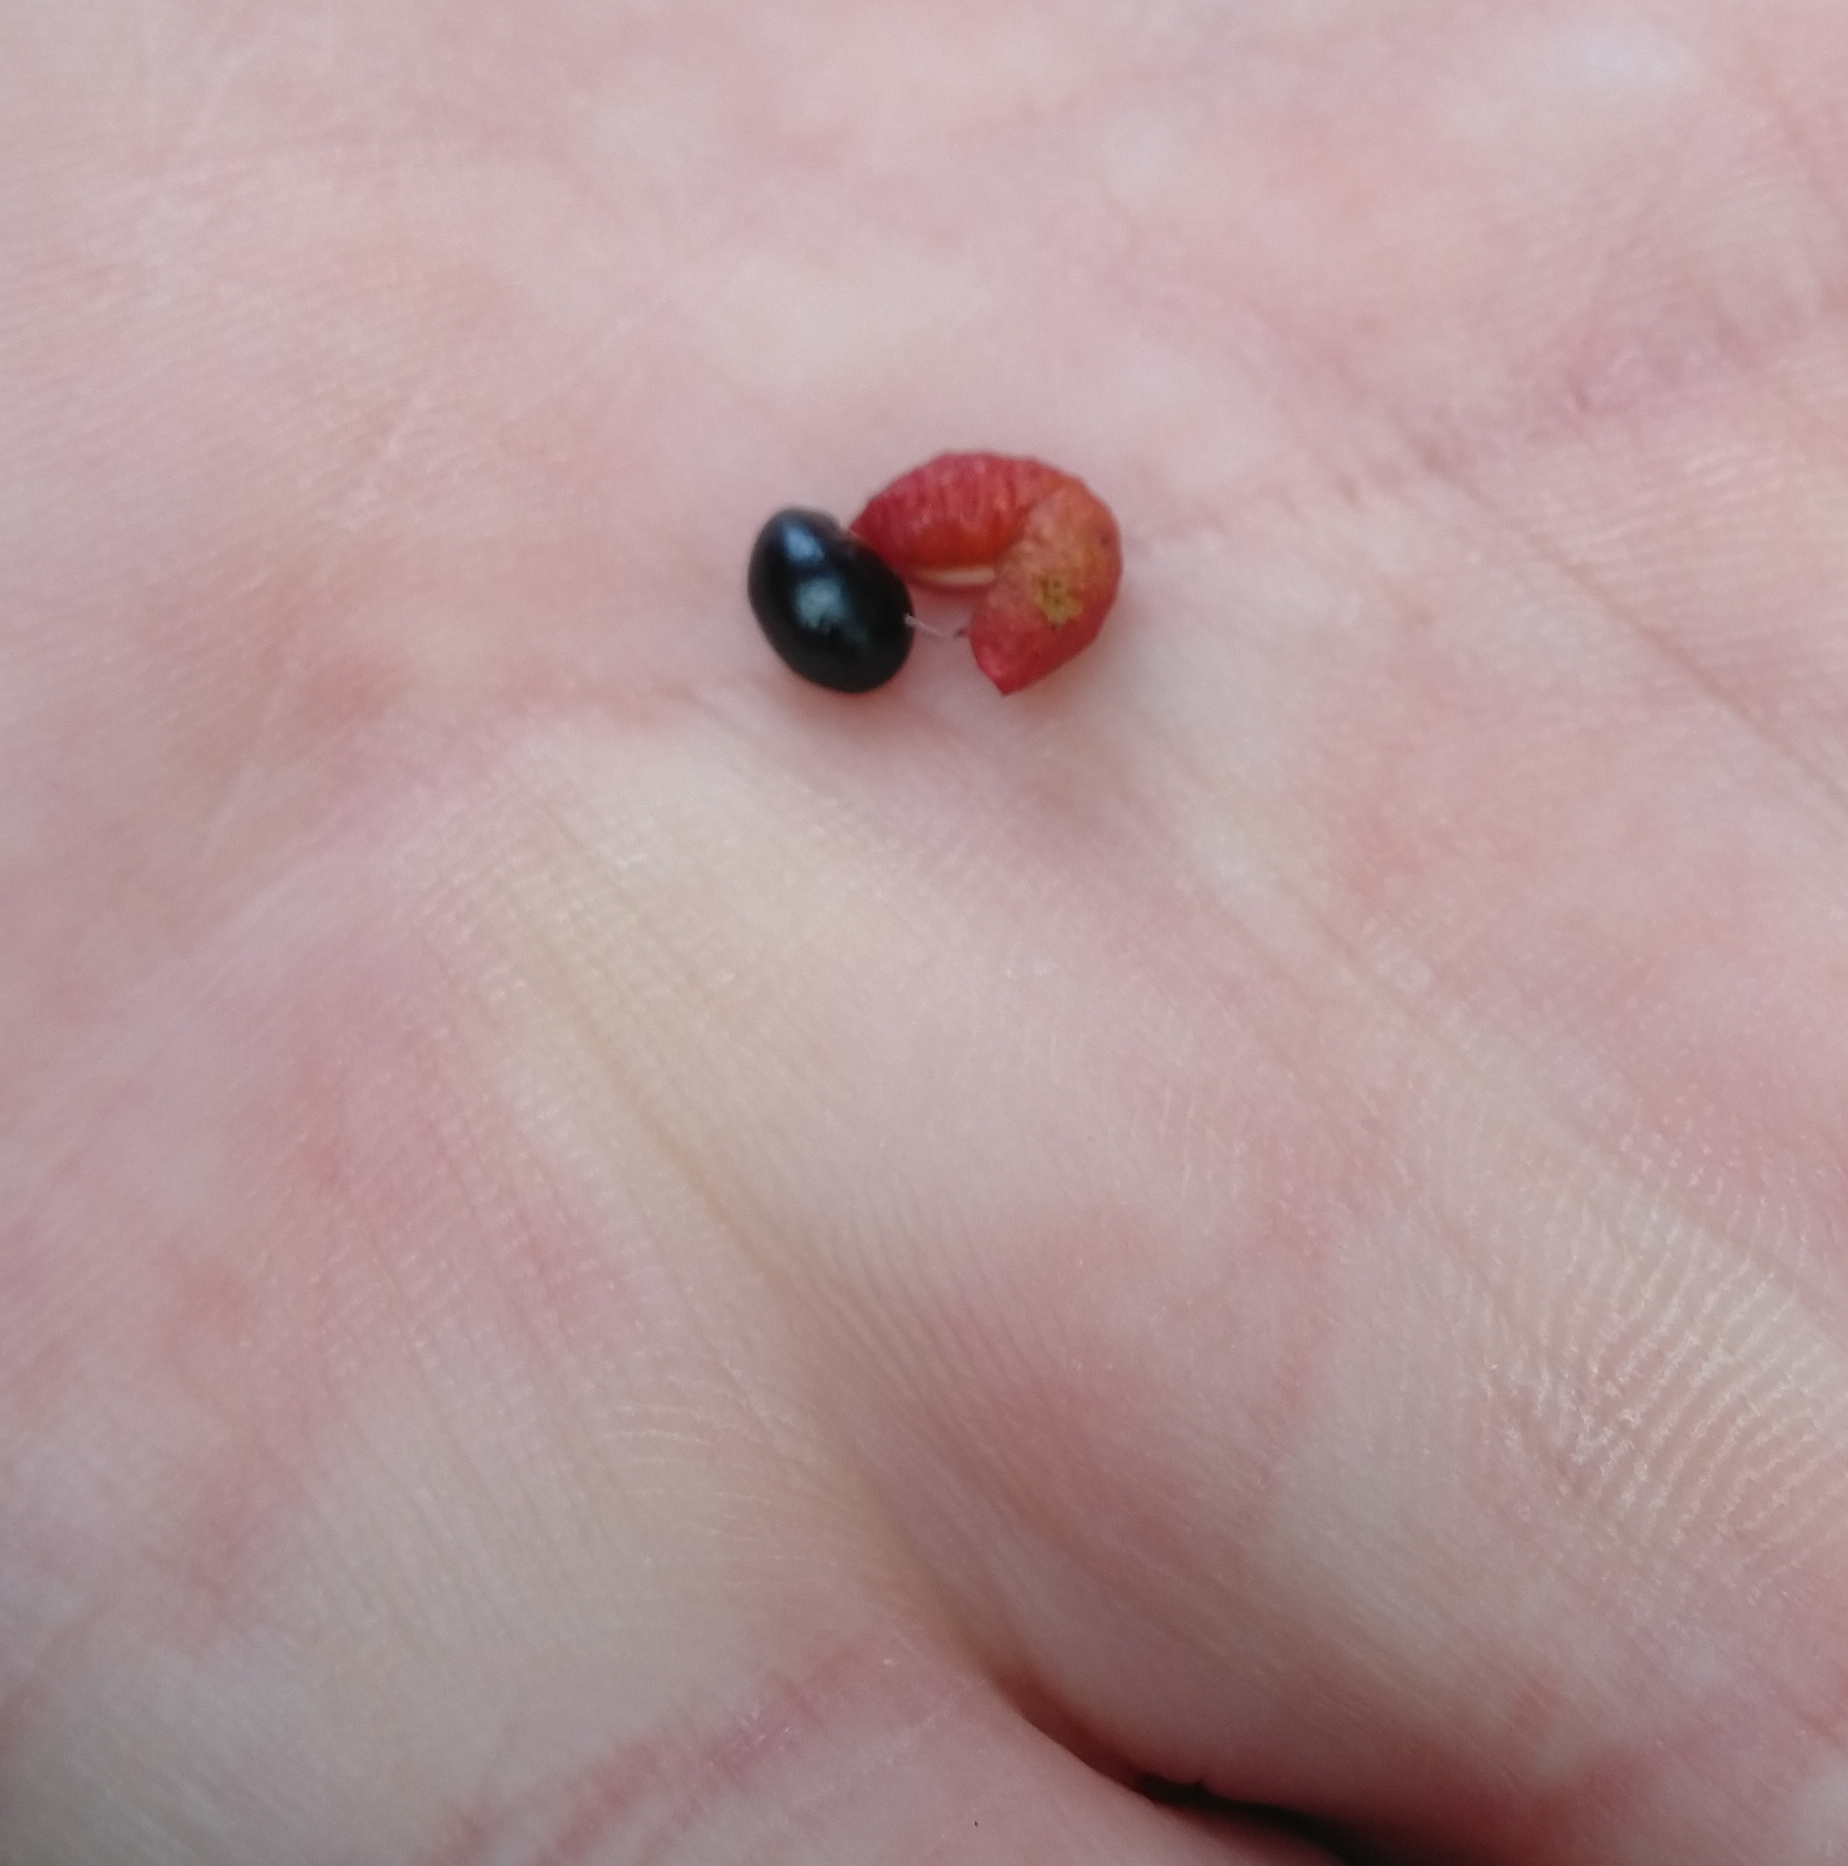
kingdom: Plantae
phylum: Tracheophyta
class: Magnoliopsida
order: Sapindales
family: Rutaceae
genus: Zanthoxylum
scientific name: Zanthoxylum americanum
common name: Northern prickly-ash
